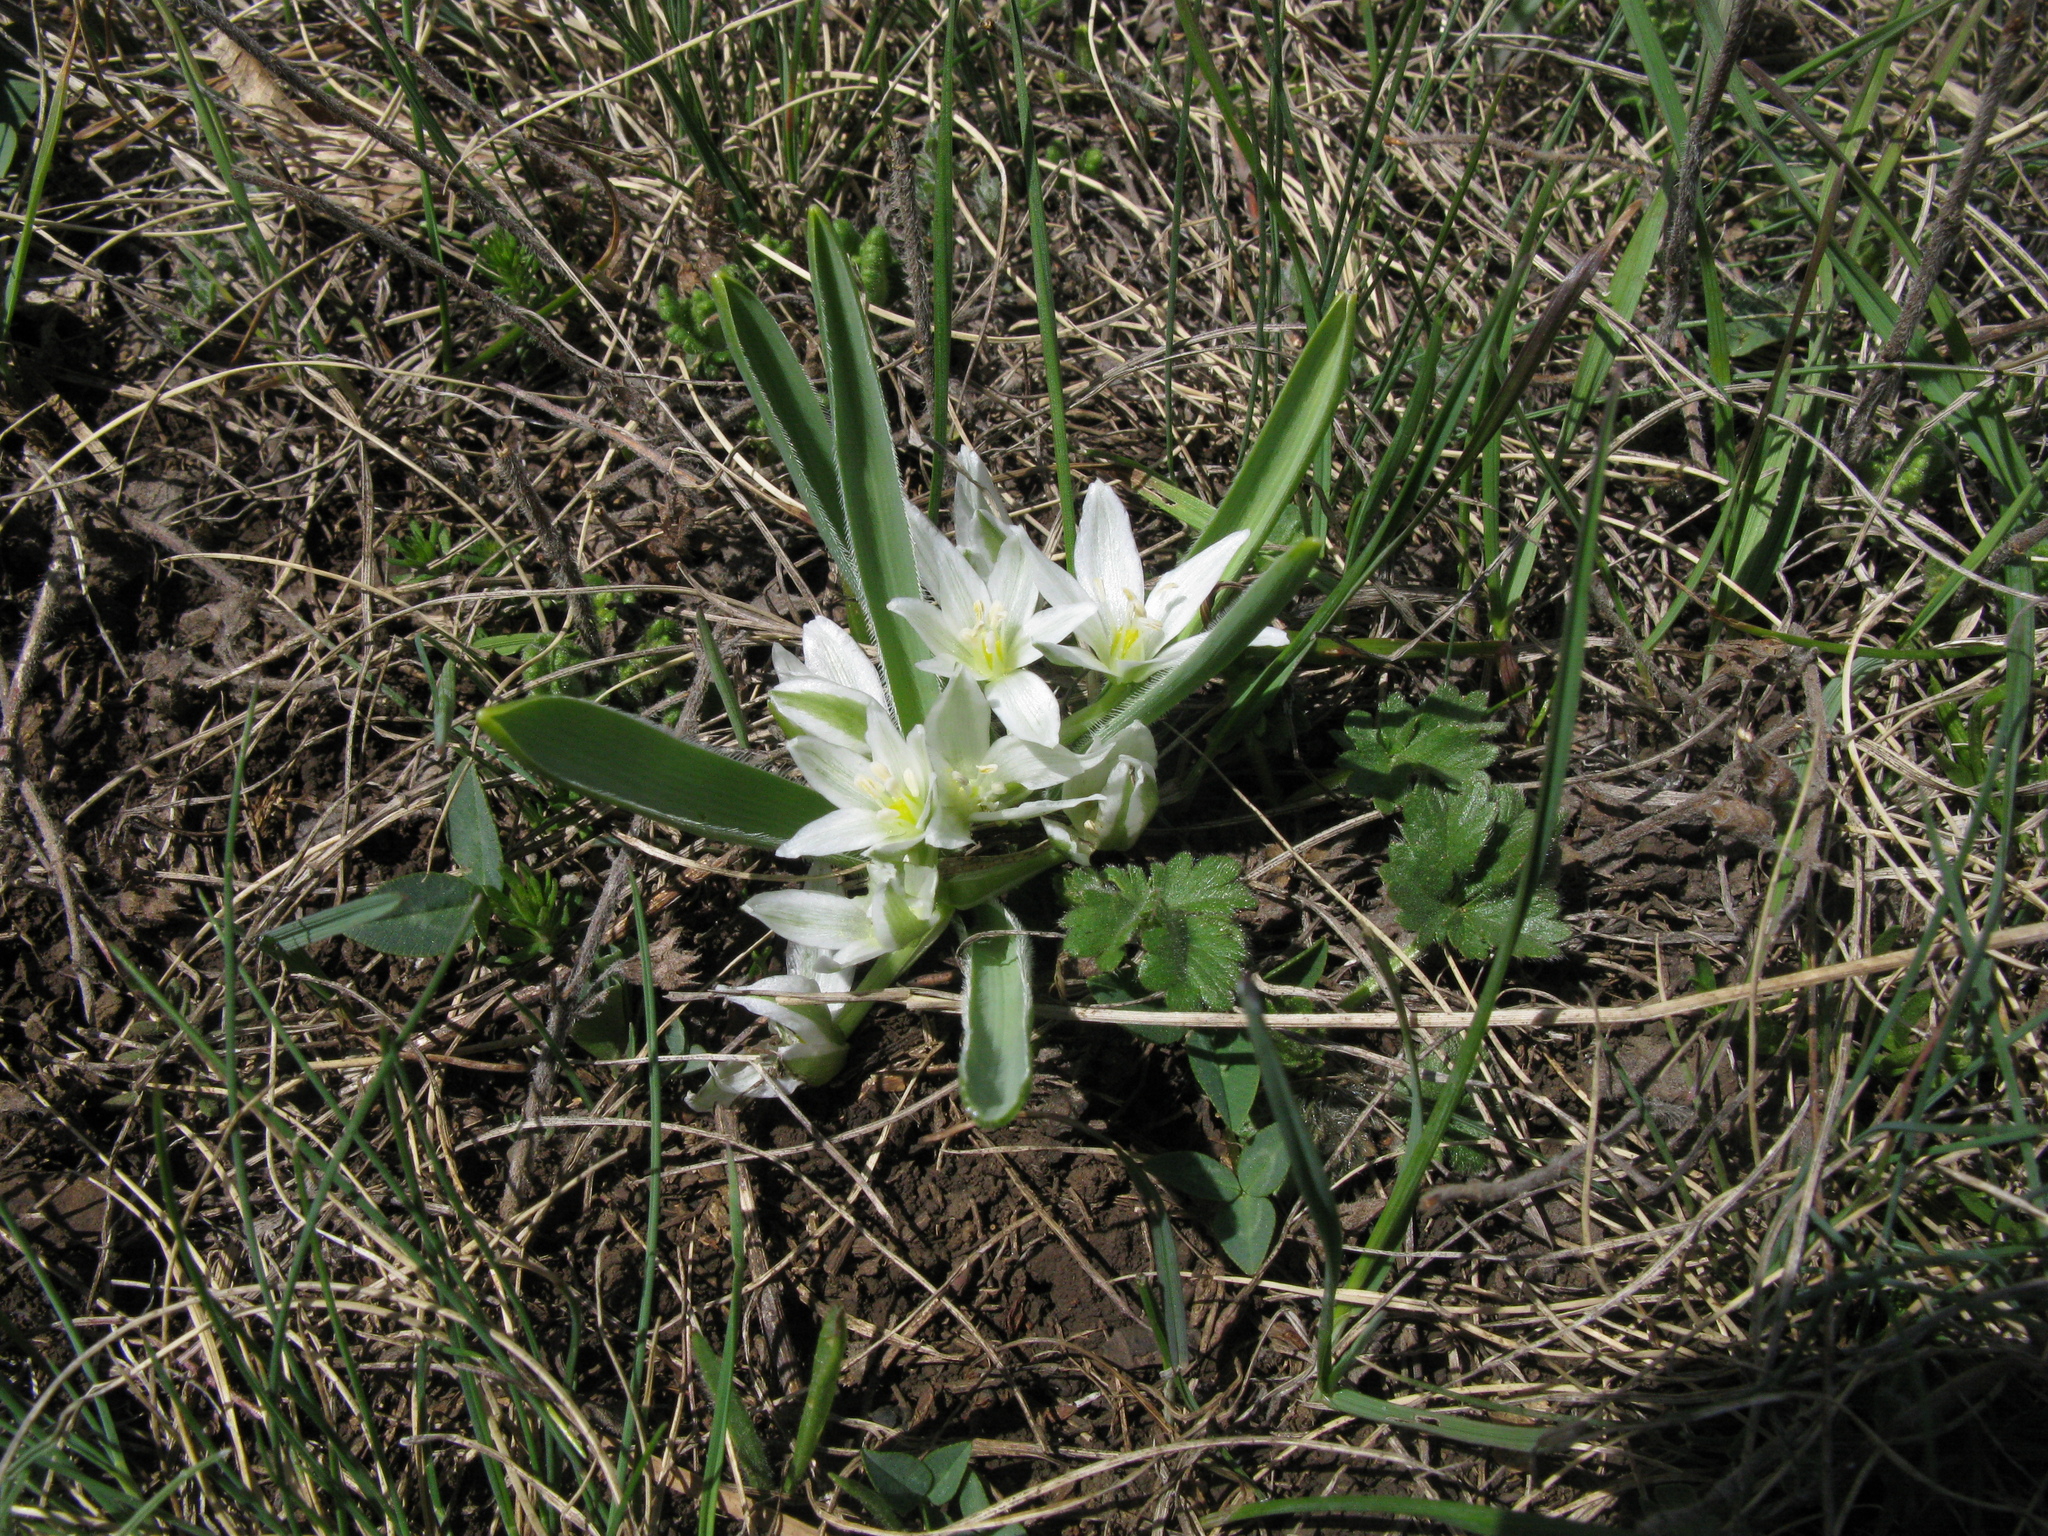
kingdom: Plantae
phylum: Tracheophyta
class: Liliopsida
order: Asparagales
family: Asparagaceae
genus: Ornithogalum
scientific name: Ornithogalum fimbriatum
